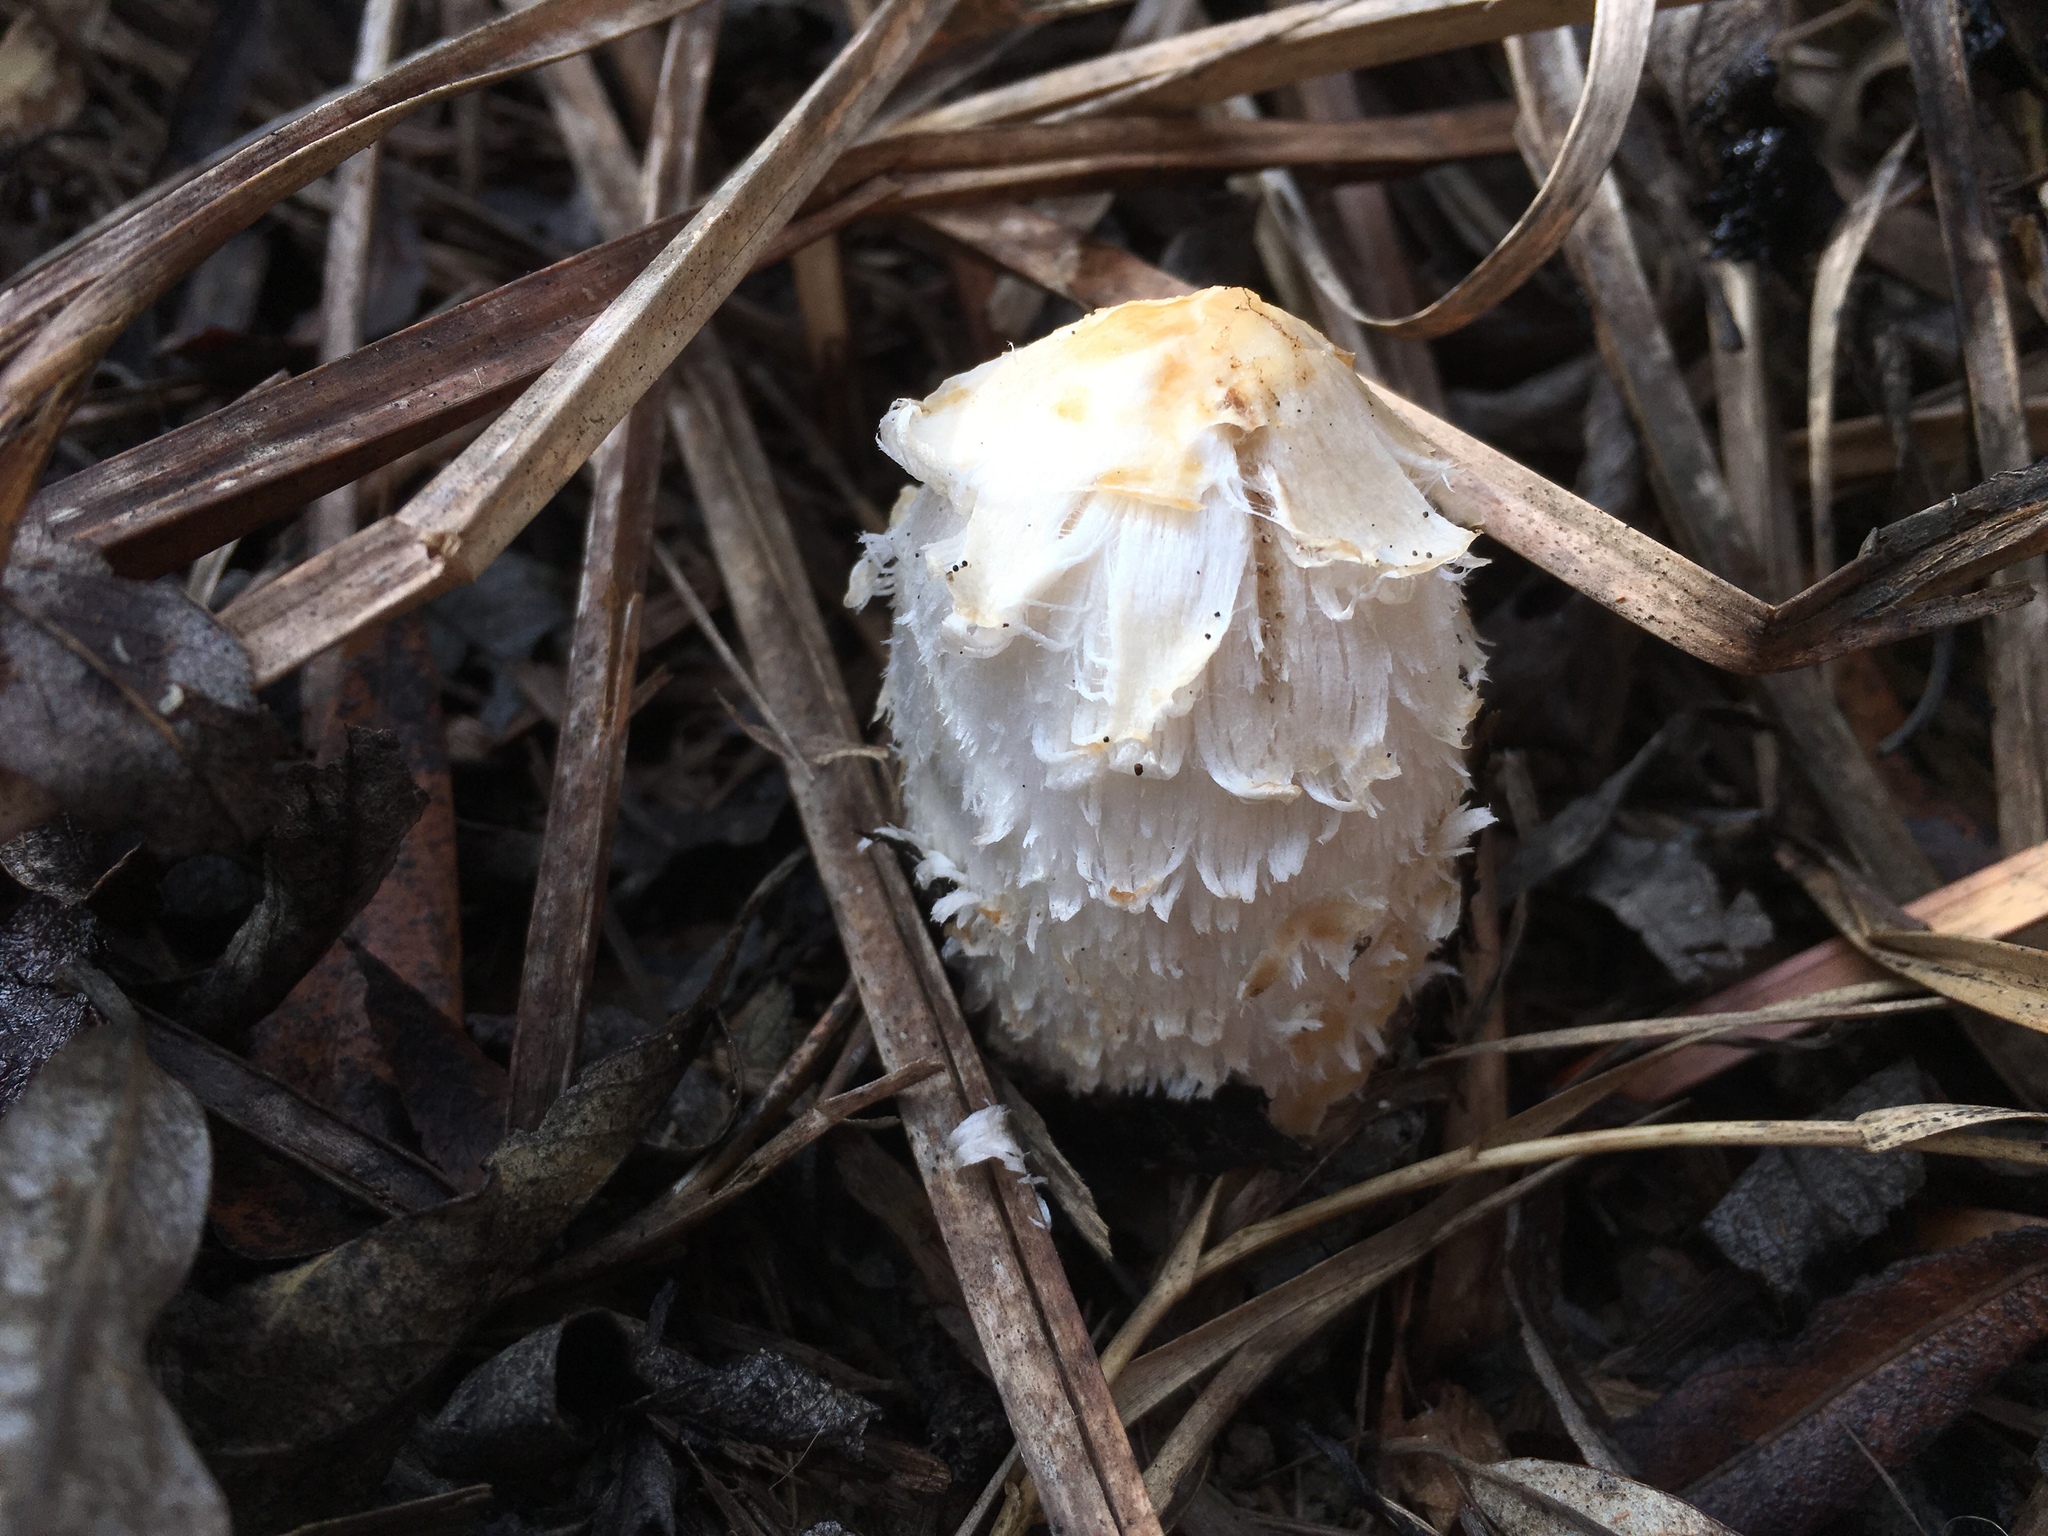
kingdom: Fungi
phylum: Basidiomycota
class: Agaricomycetes
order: Agaricales
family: Agaricaceae
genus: Coprinus
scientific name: Coprinus comatus
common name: Lawyer's wig
